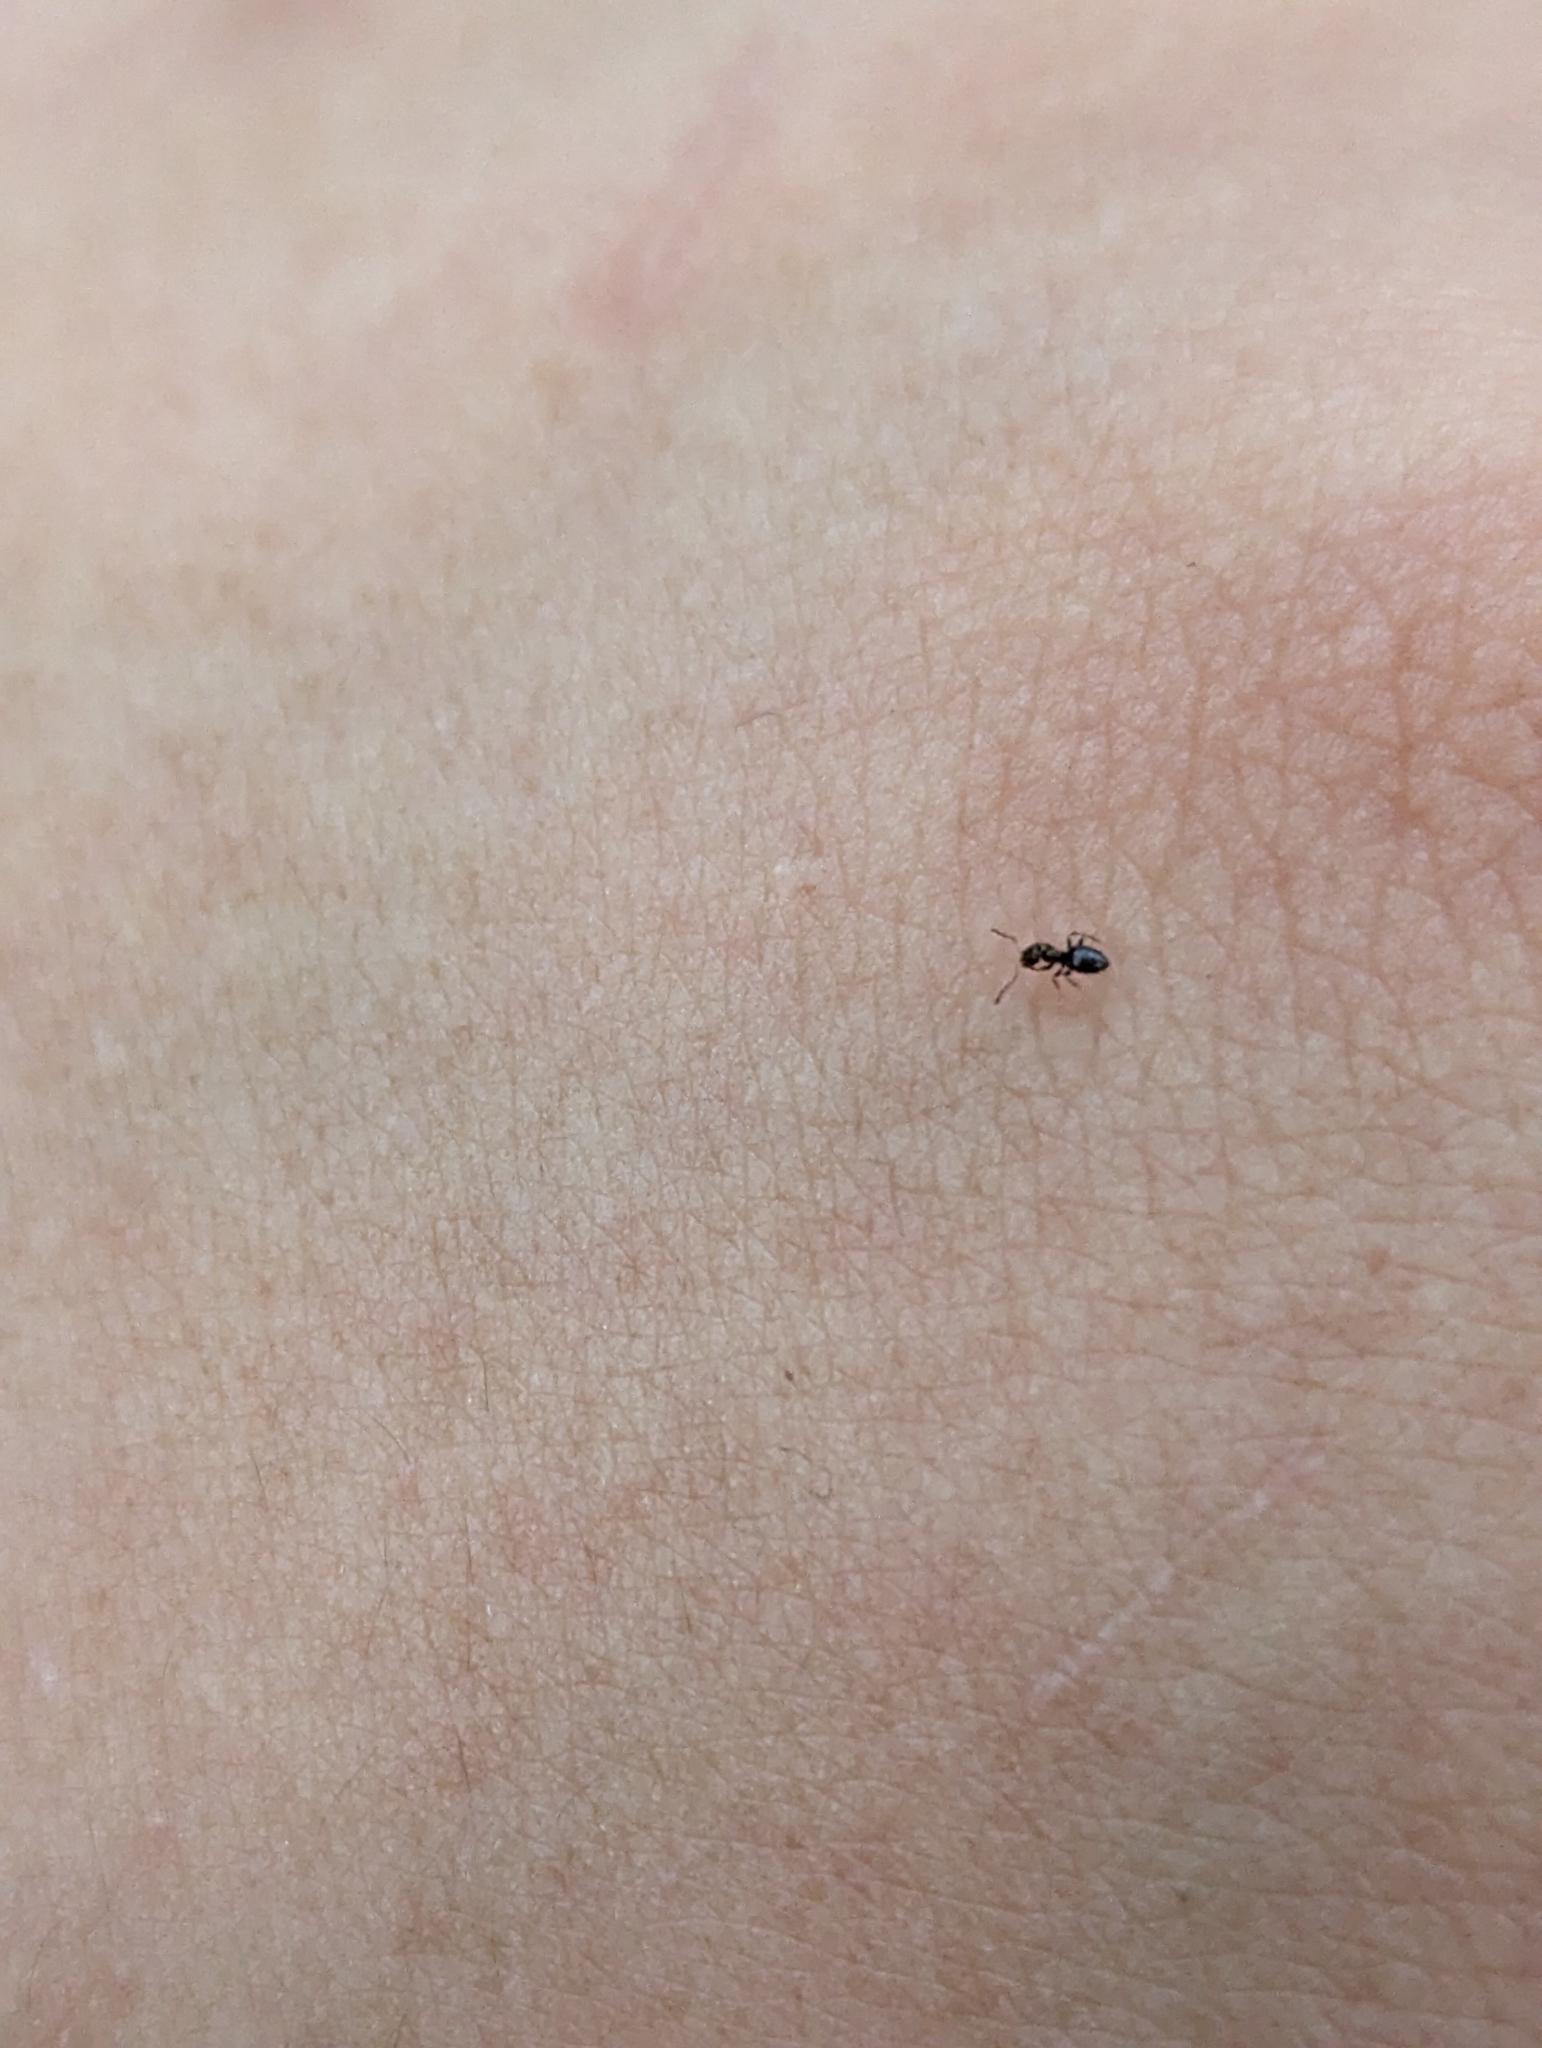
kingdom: Animalia
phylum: Arthropoda
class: Insecta
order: Hymenoptera
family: Formicidae
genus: Brachymyrmex
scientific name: Brachymyrmex patagonicus
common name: Dark rover ant
